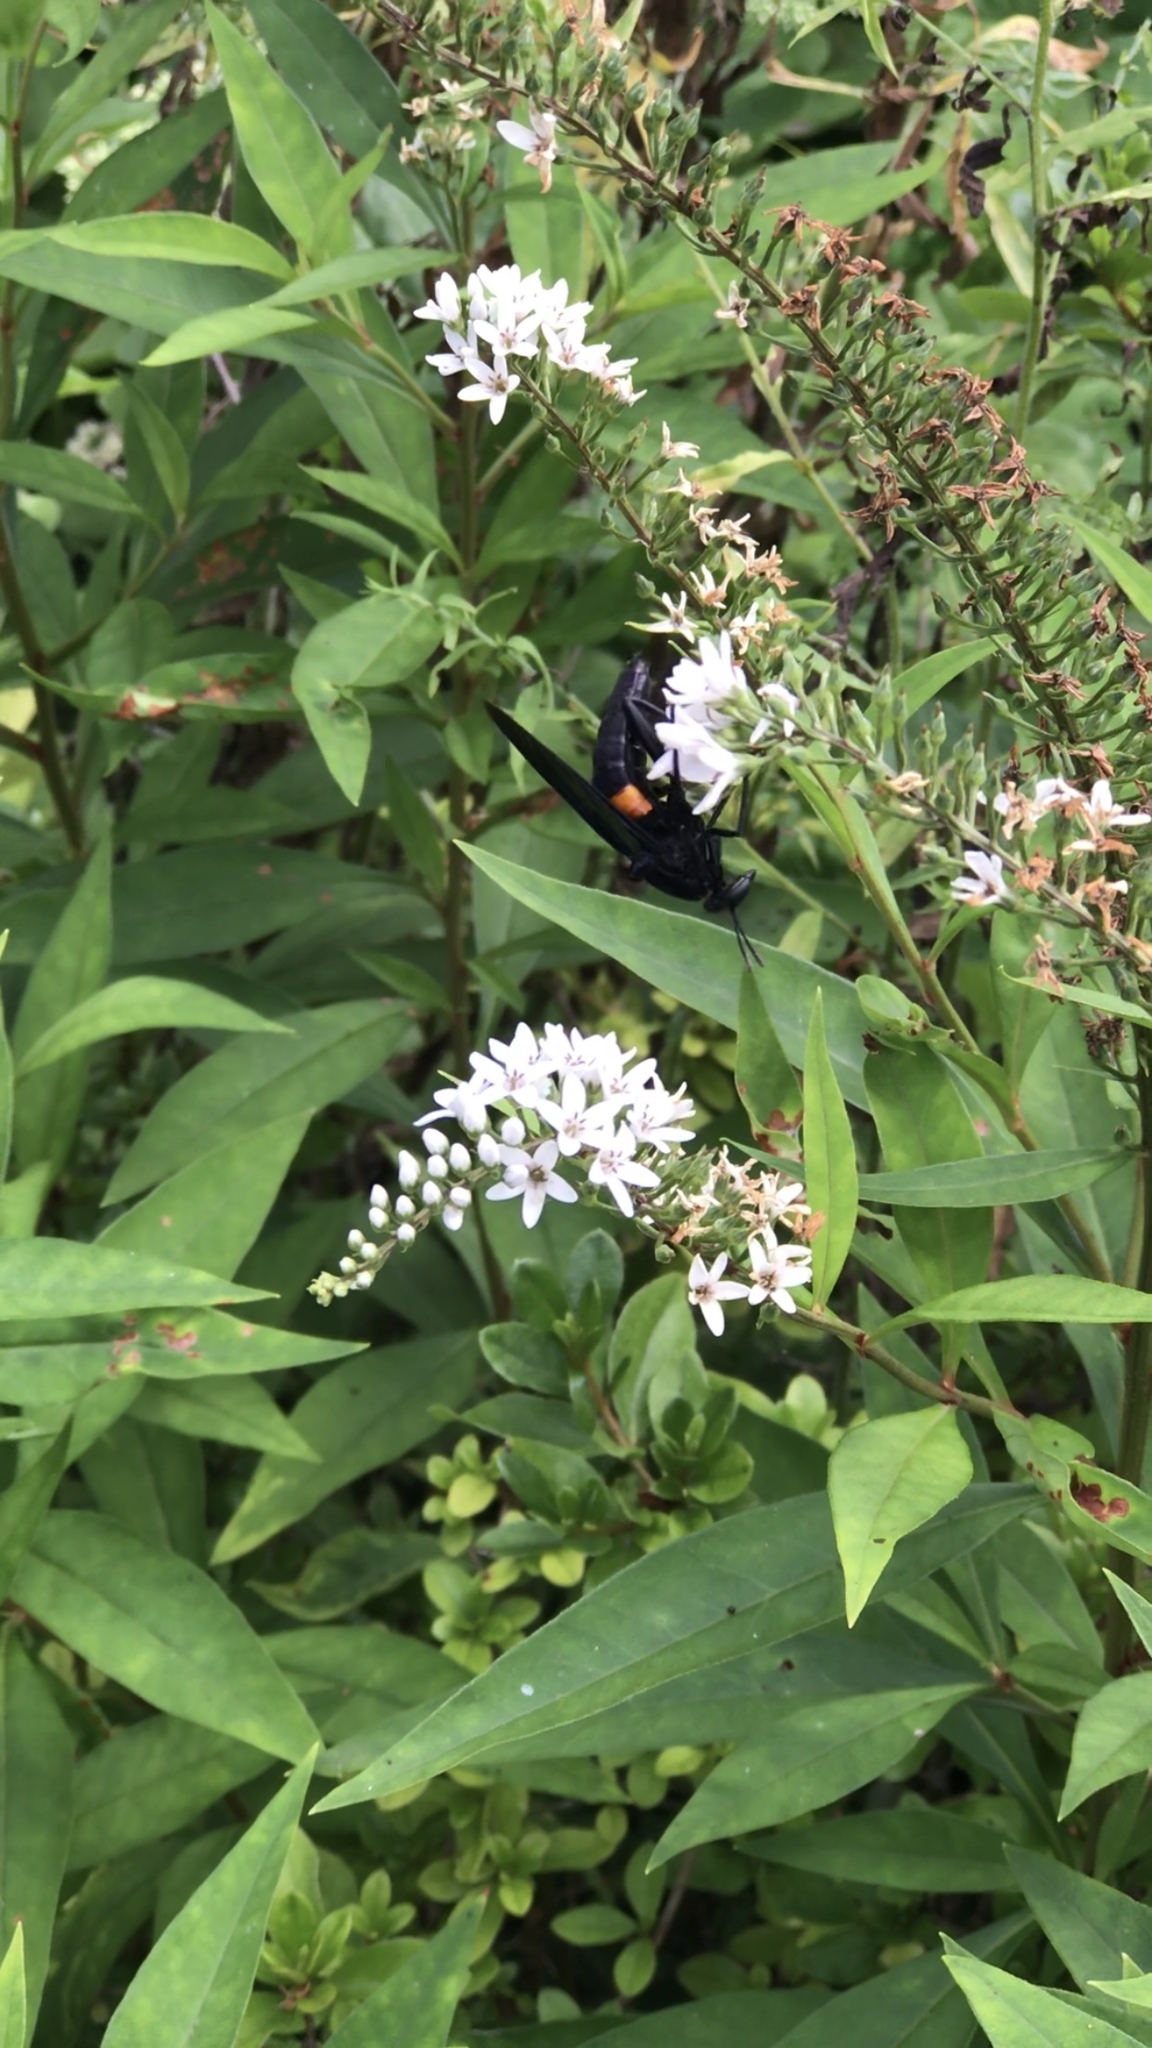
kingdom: Animalia
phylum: Arthropoda
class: Insecta
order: Diptera
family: Mydidae
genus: Mydas
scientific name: Mydas clavatus
